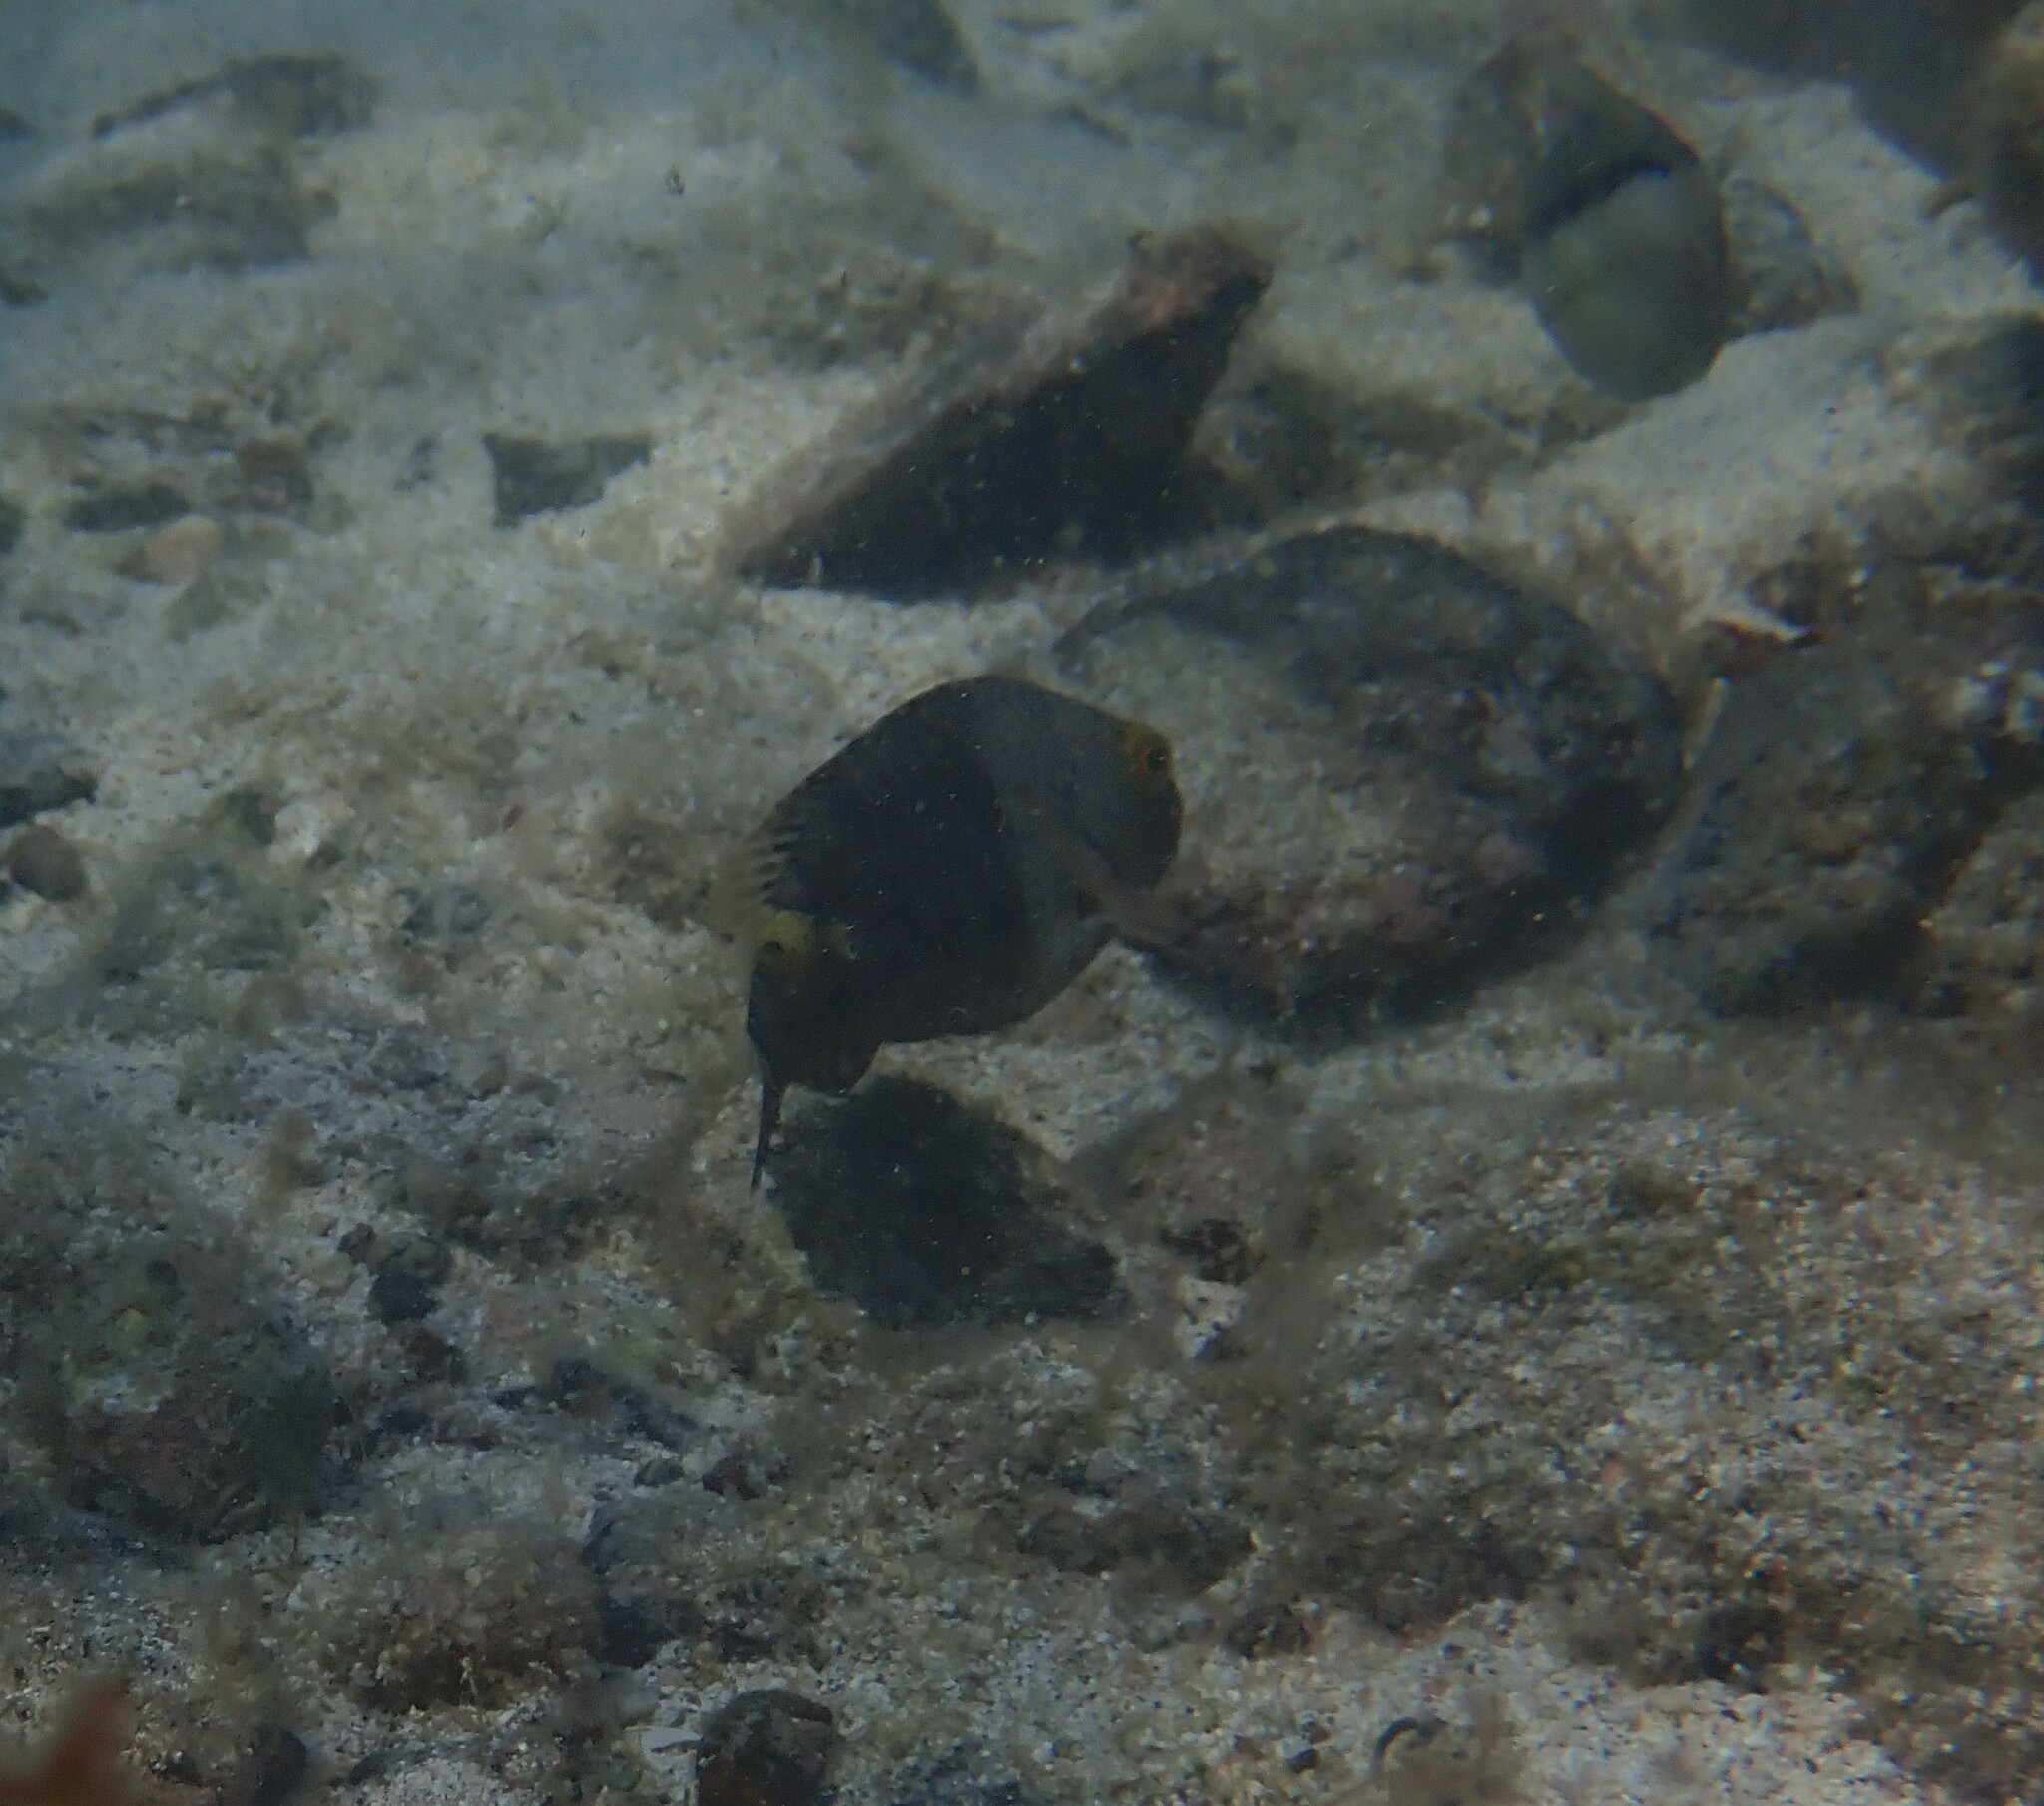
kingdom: Animalia
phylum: Chordata
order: Perciformes
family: Scaridae
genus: Sparisoma
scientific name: Sparisoma cretense
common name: Parrotfish
